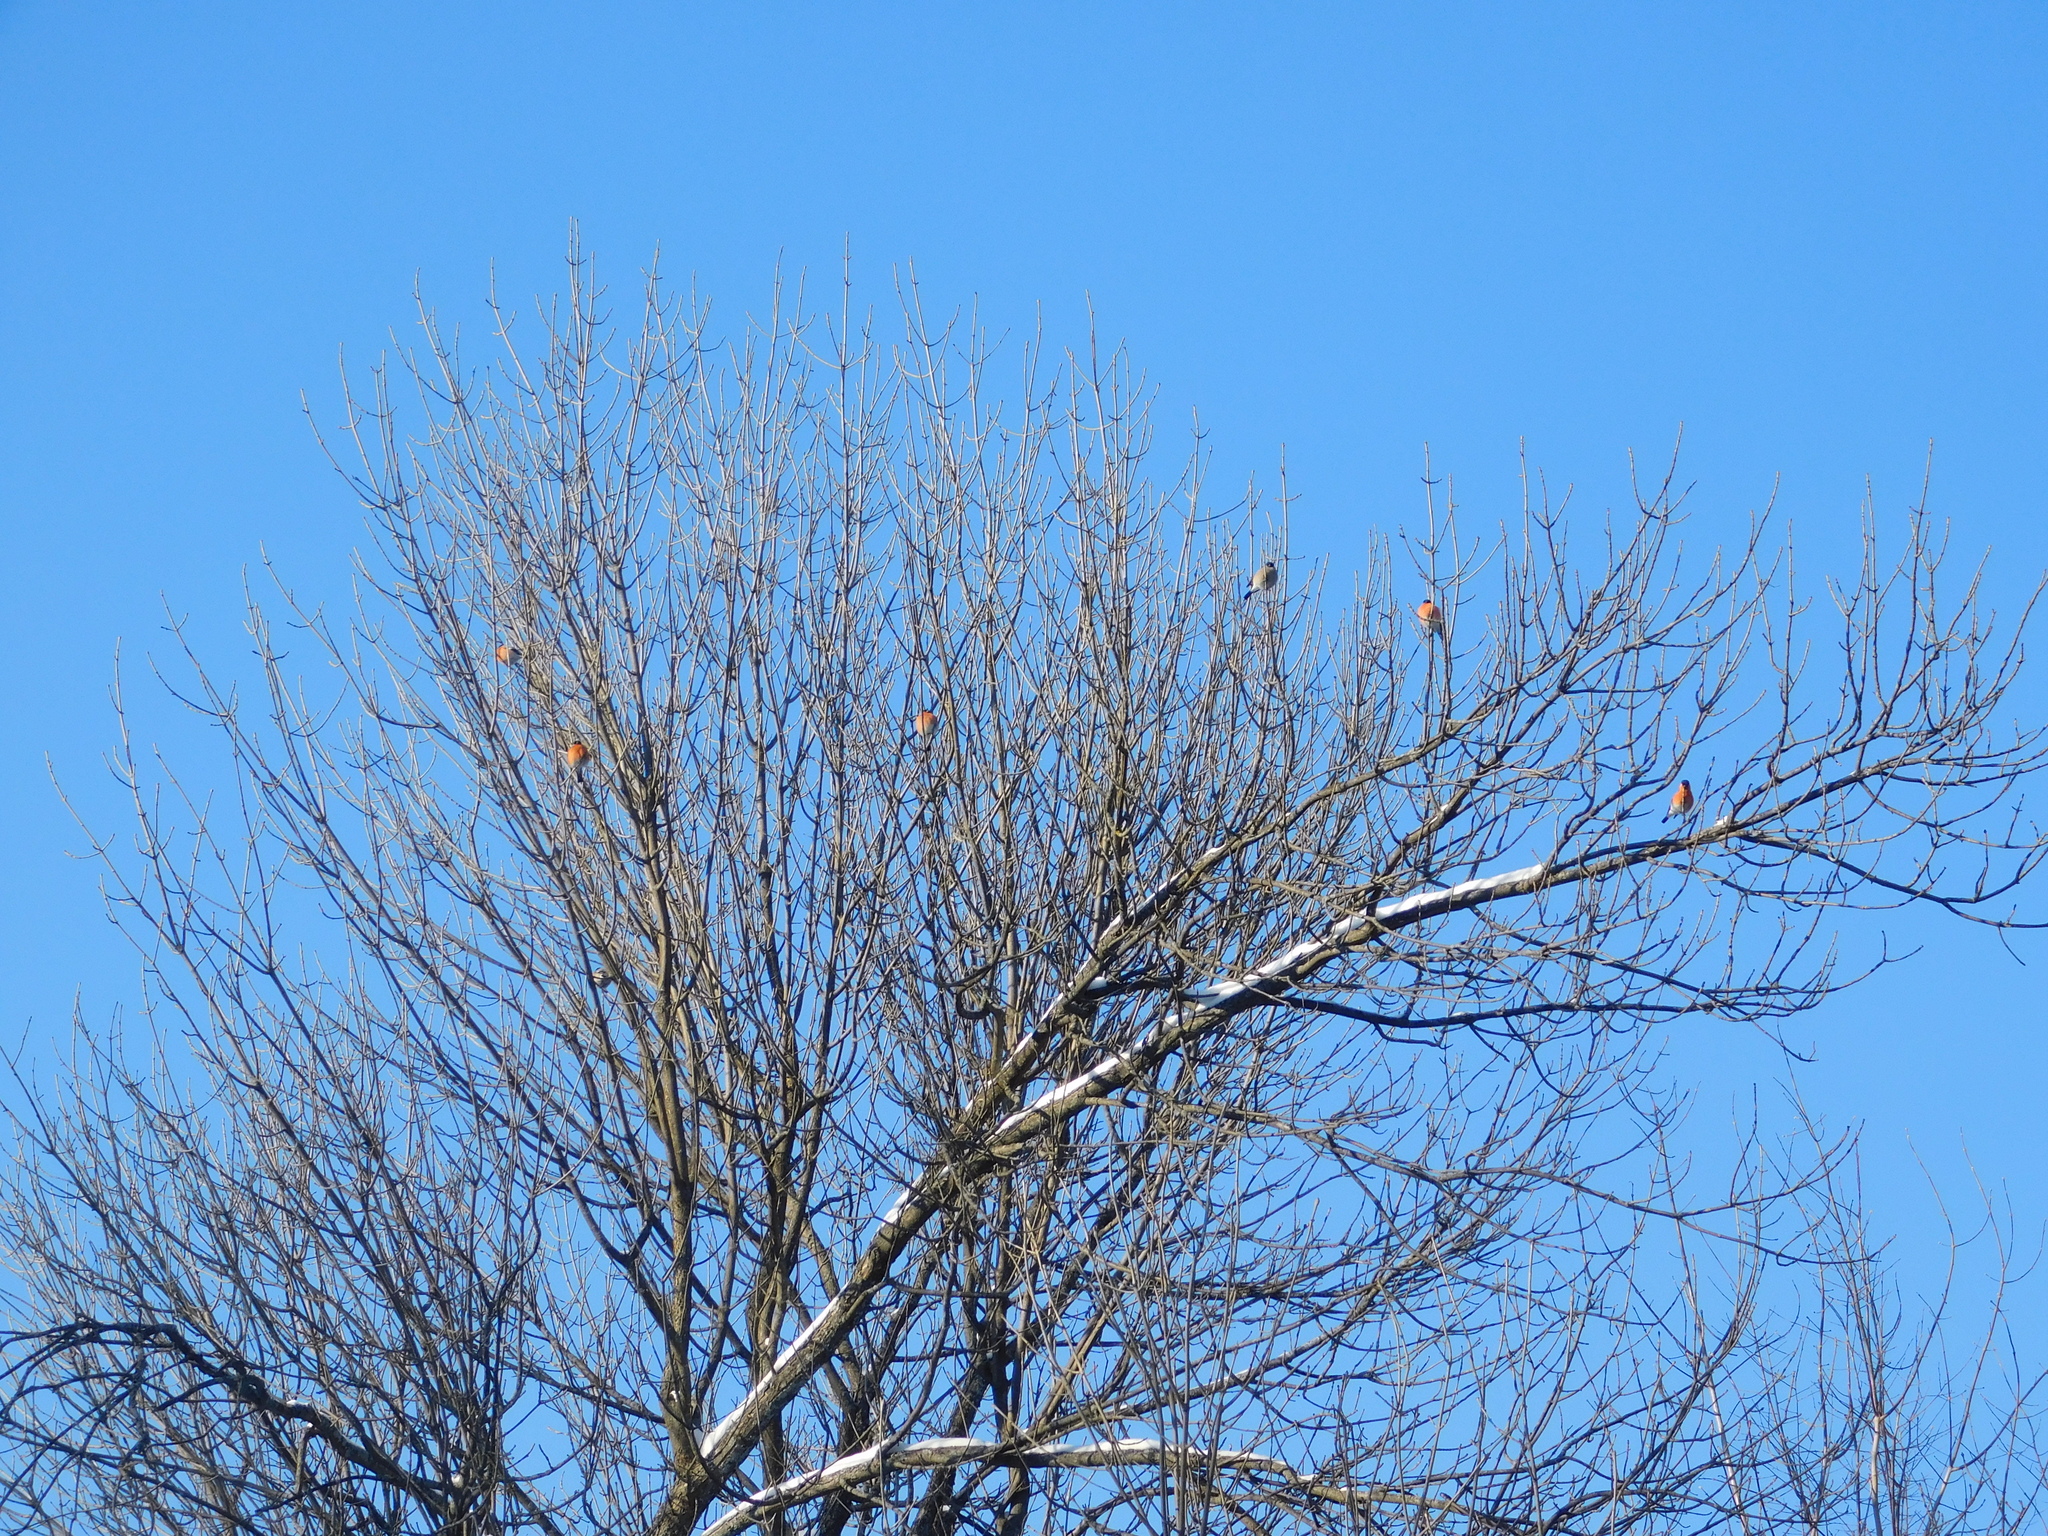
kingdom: Animalia
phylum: Chordata
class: Aves
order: Passeriformes
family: Fringillidae
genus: Pyrrhula
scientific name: Pyrrhula pyrrhula
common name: Eurasian bullfinch
